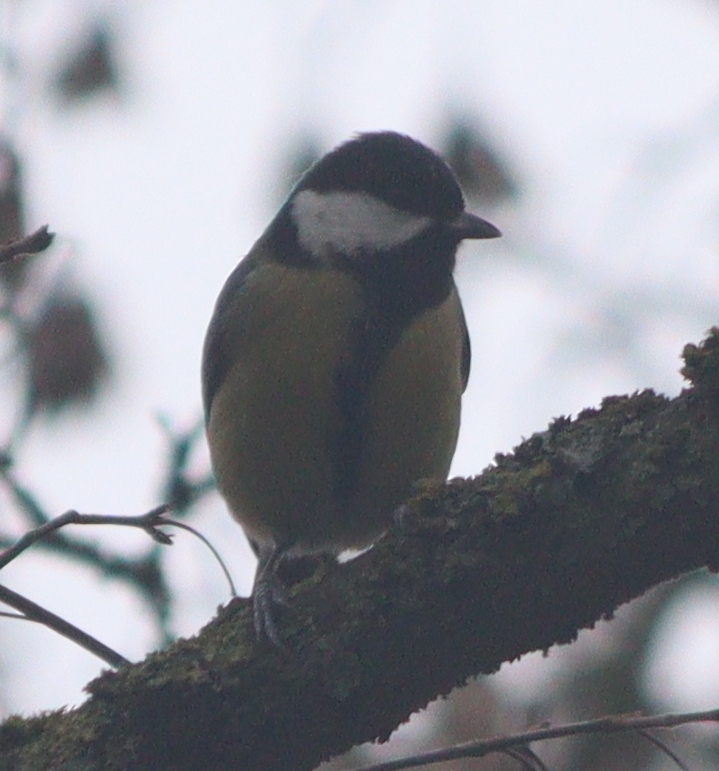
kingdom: Animalia
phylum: Chordata
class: Aves
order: Passeriformes
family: Paridae
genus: Parus
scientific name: Parus major
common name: Great tit
